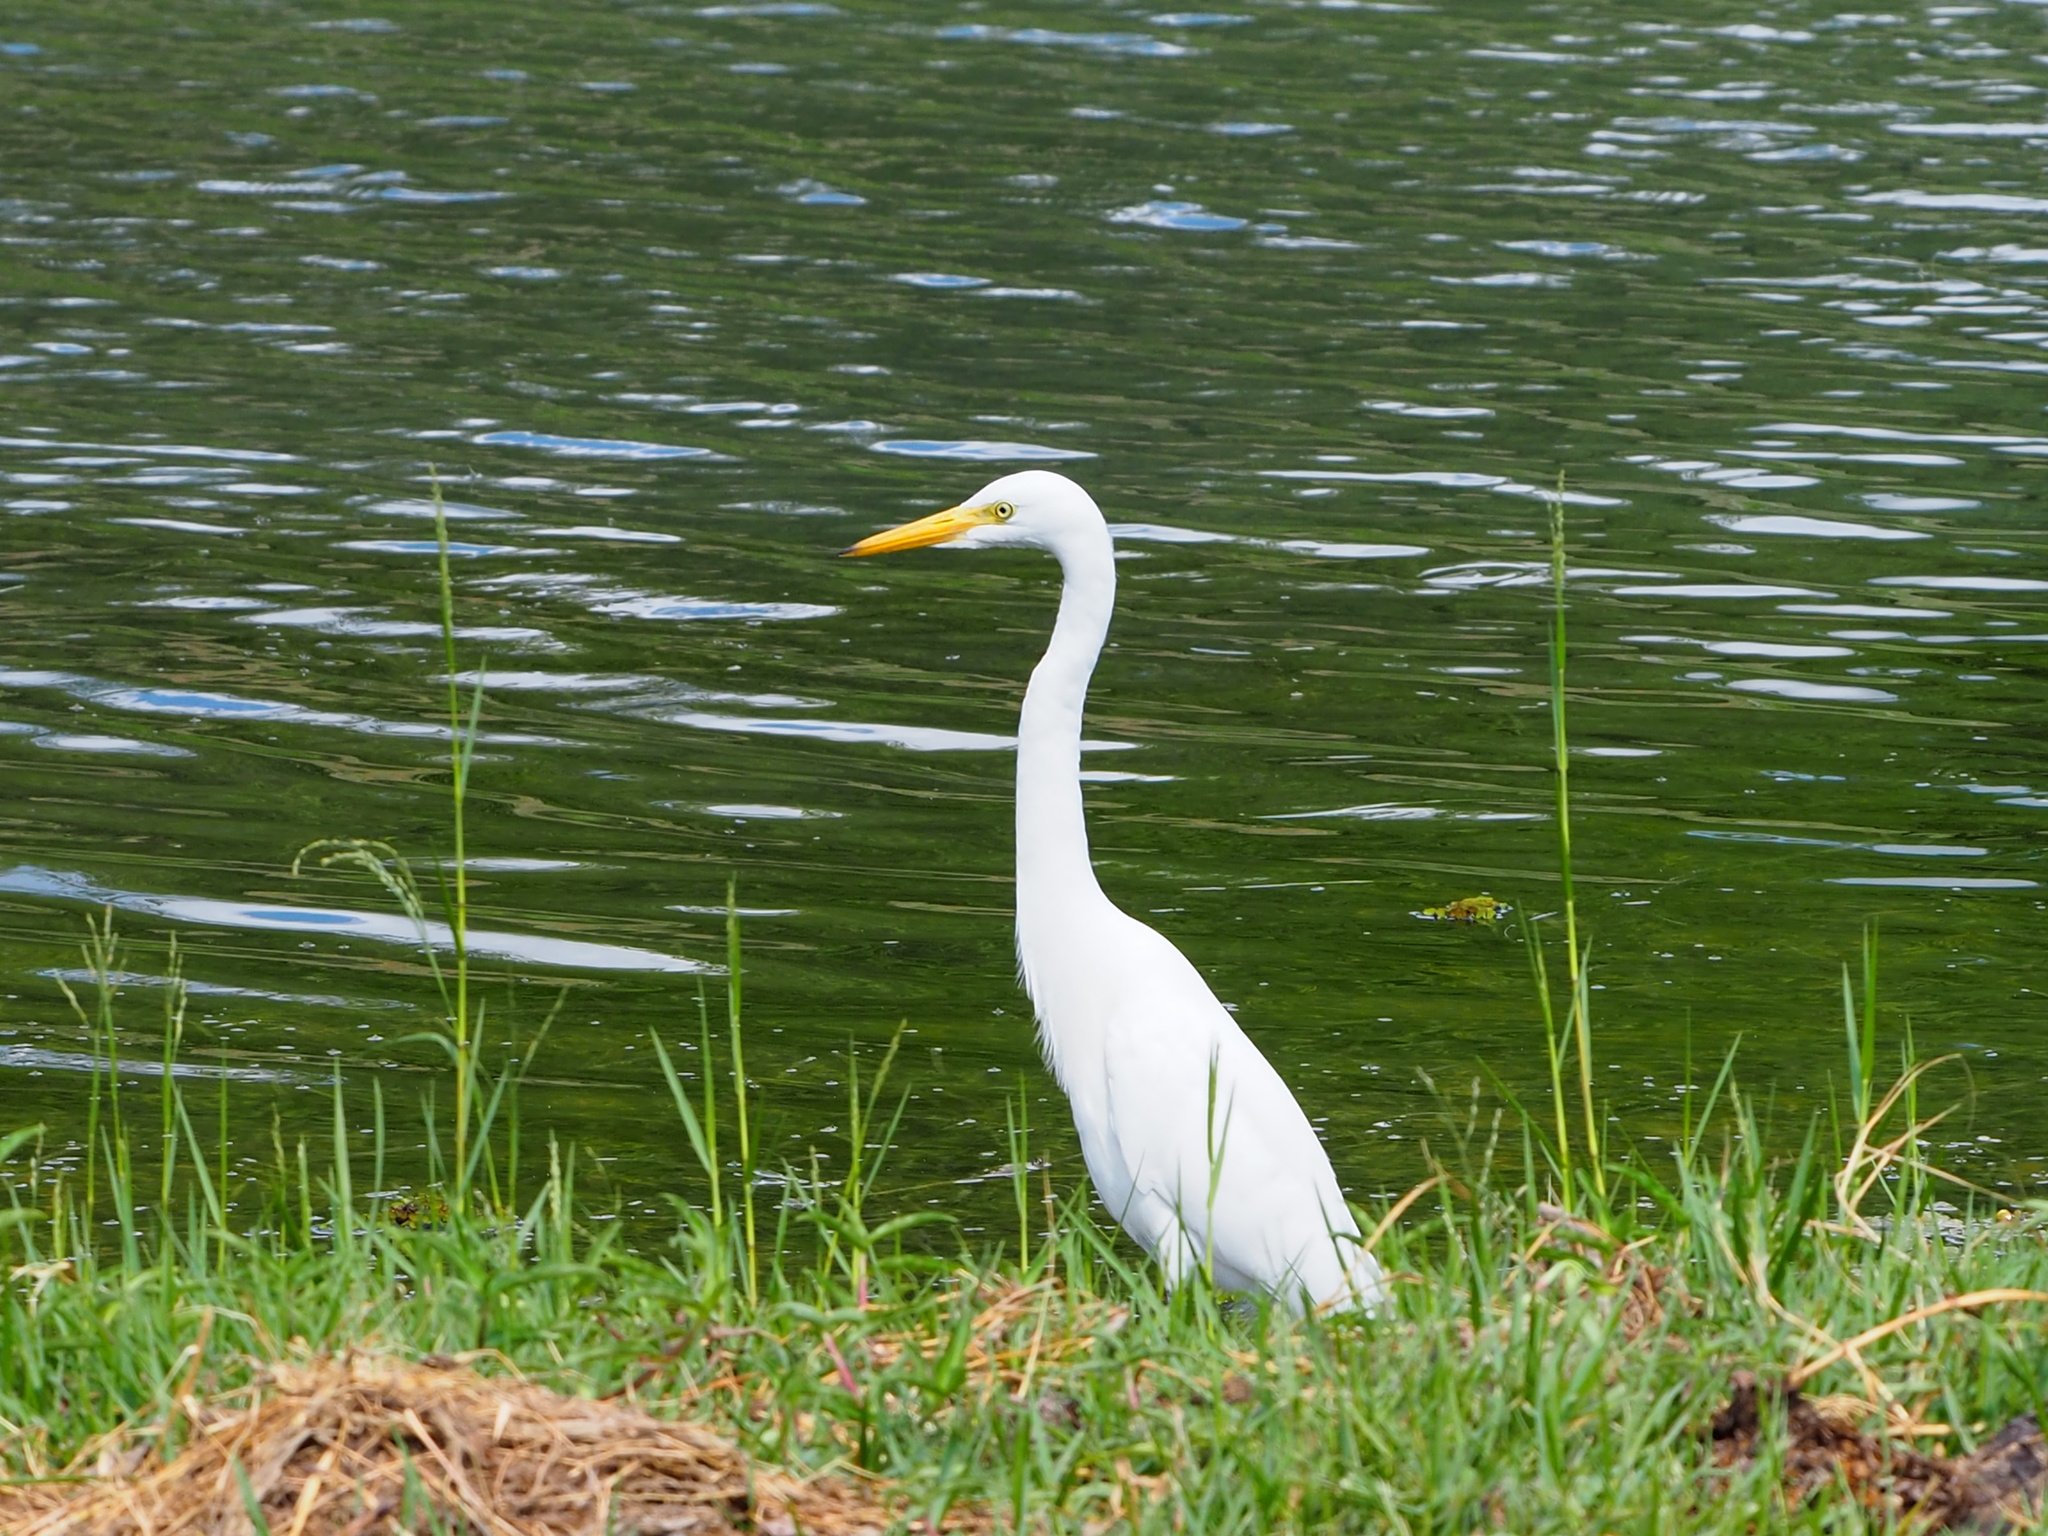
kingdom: Animalia
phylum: Chordata
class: Aves
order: Pelecaniformes
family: Ardeidae
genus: Egretta
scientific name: Egretta intermedia
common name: Intermediate egret
